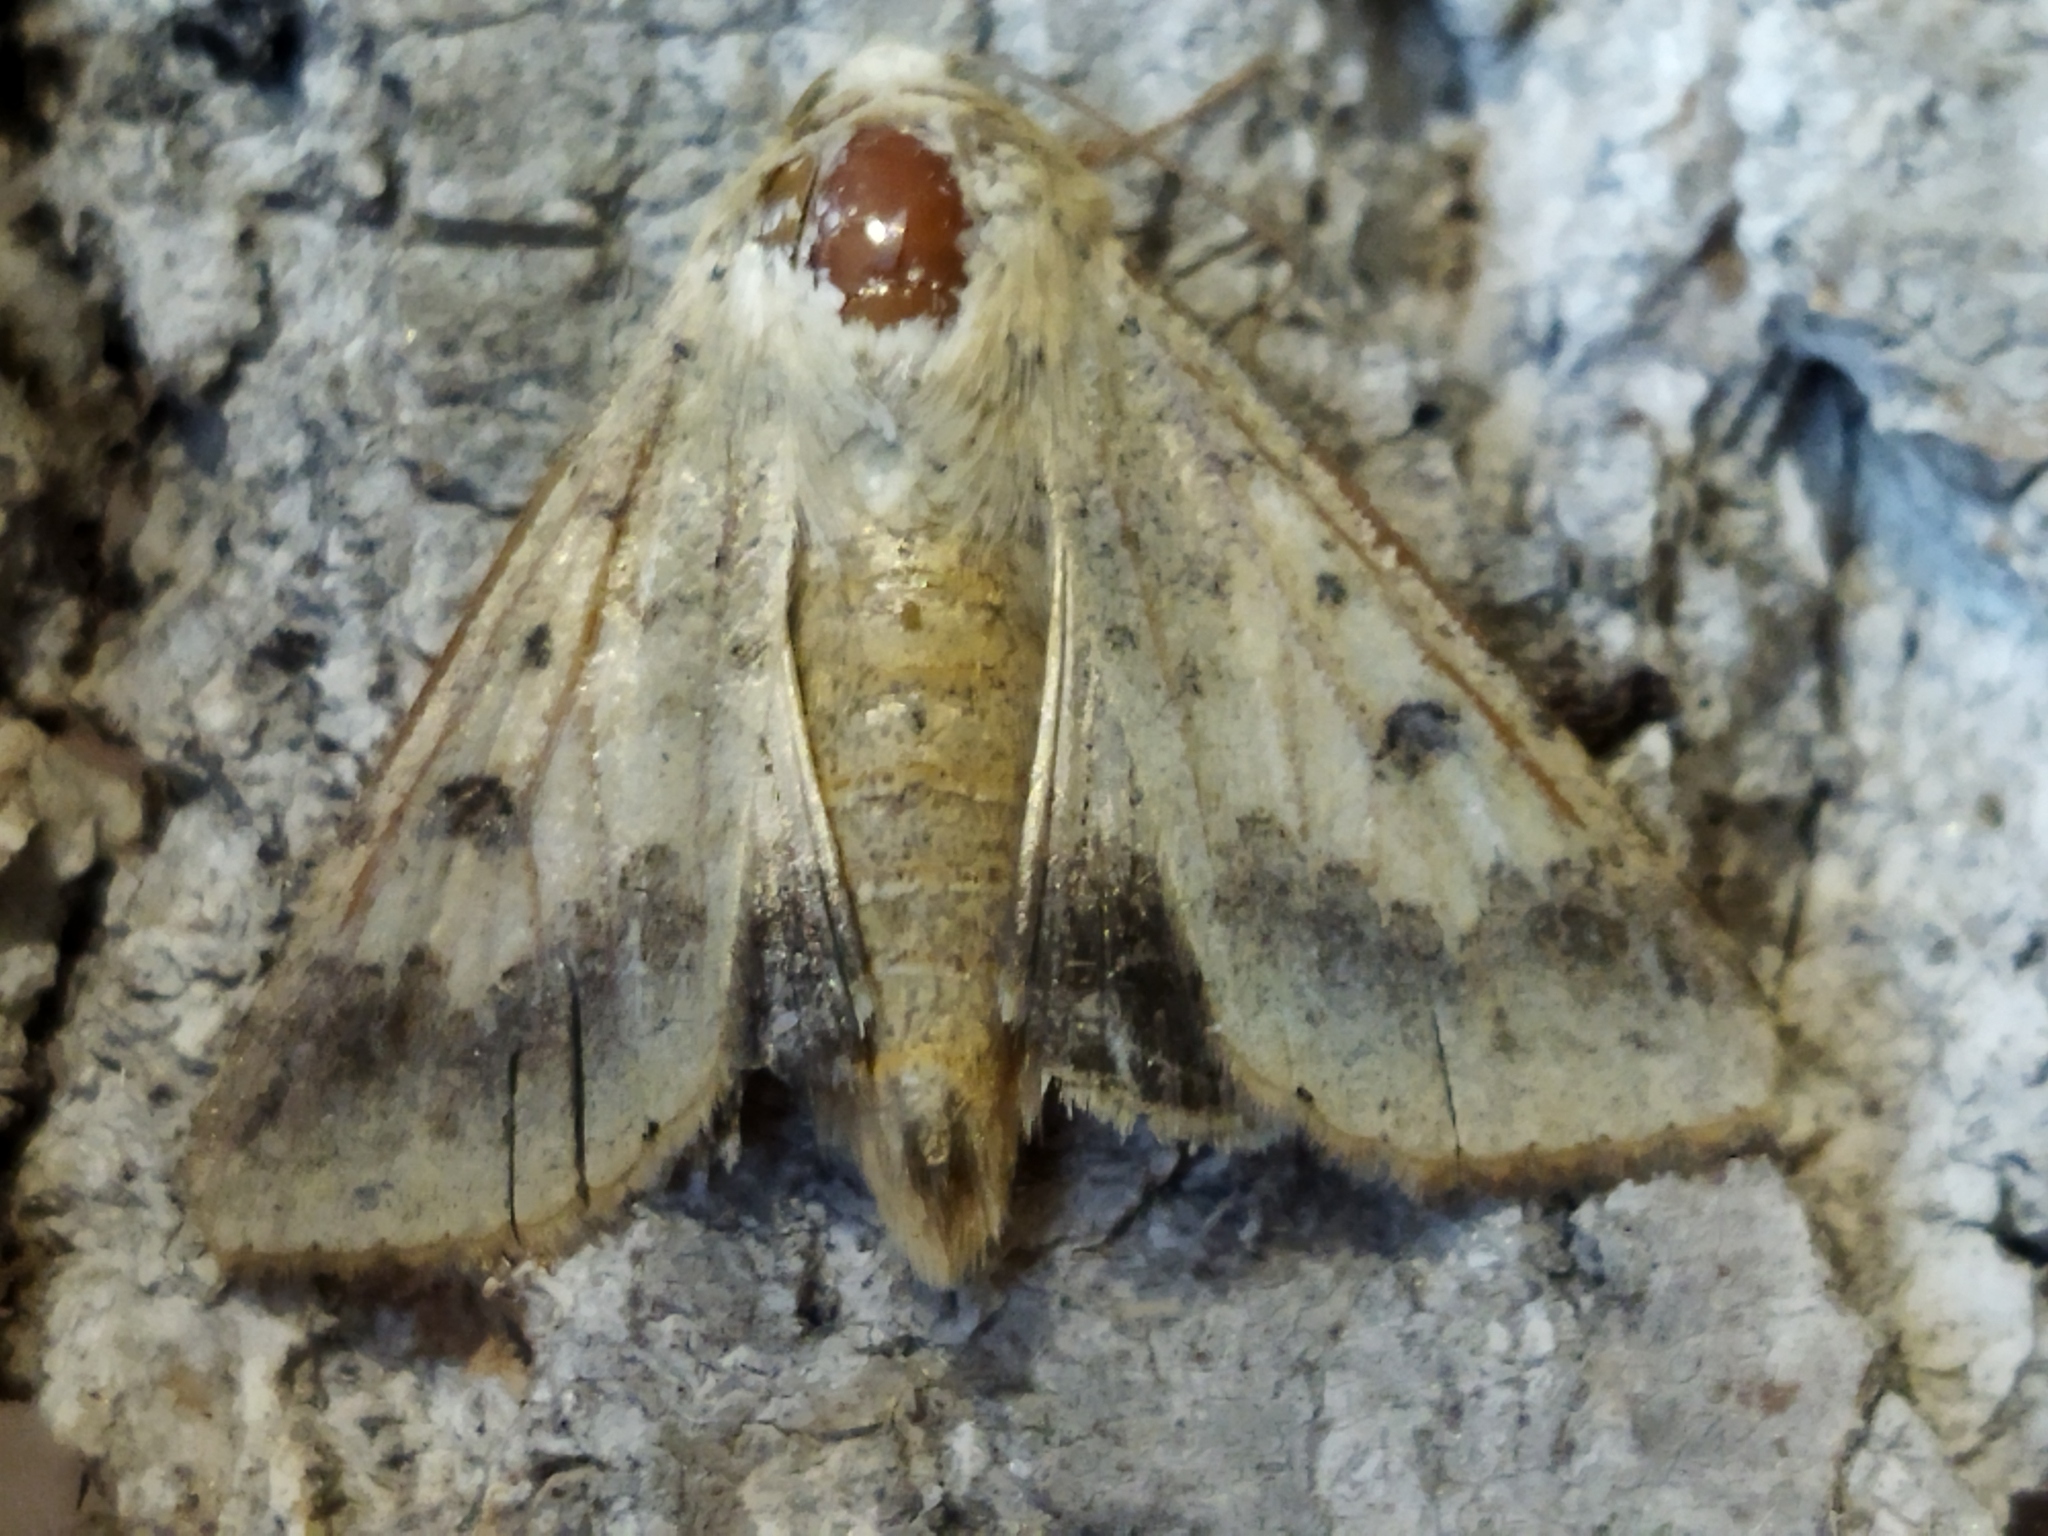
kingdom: Animalia
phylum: Arthropoda
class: Insecta
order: Lepidoptera
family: Noctuidae
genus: Helicoverpa
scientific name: Helicoverpa armigera
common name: Cotton bollworm
